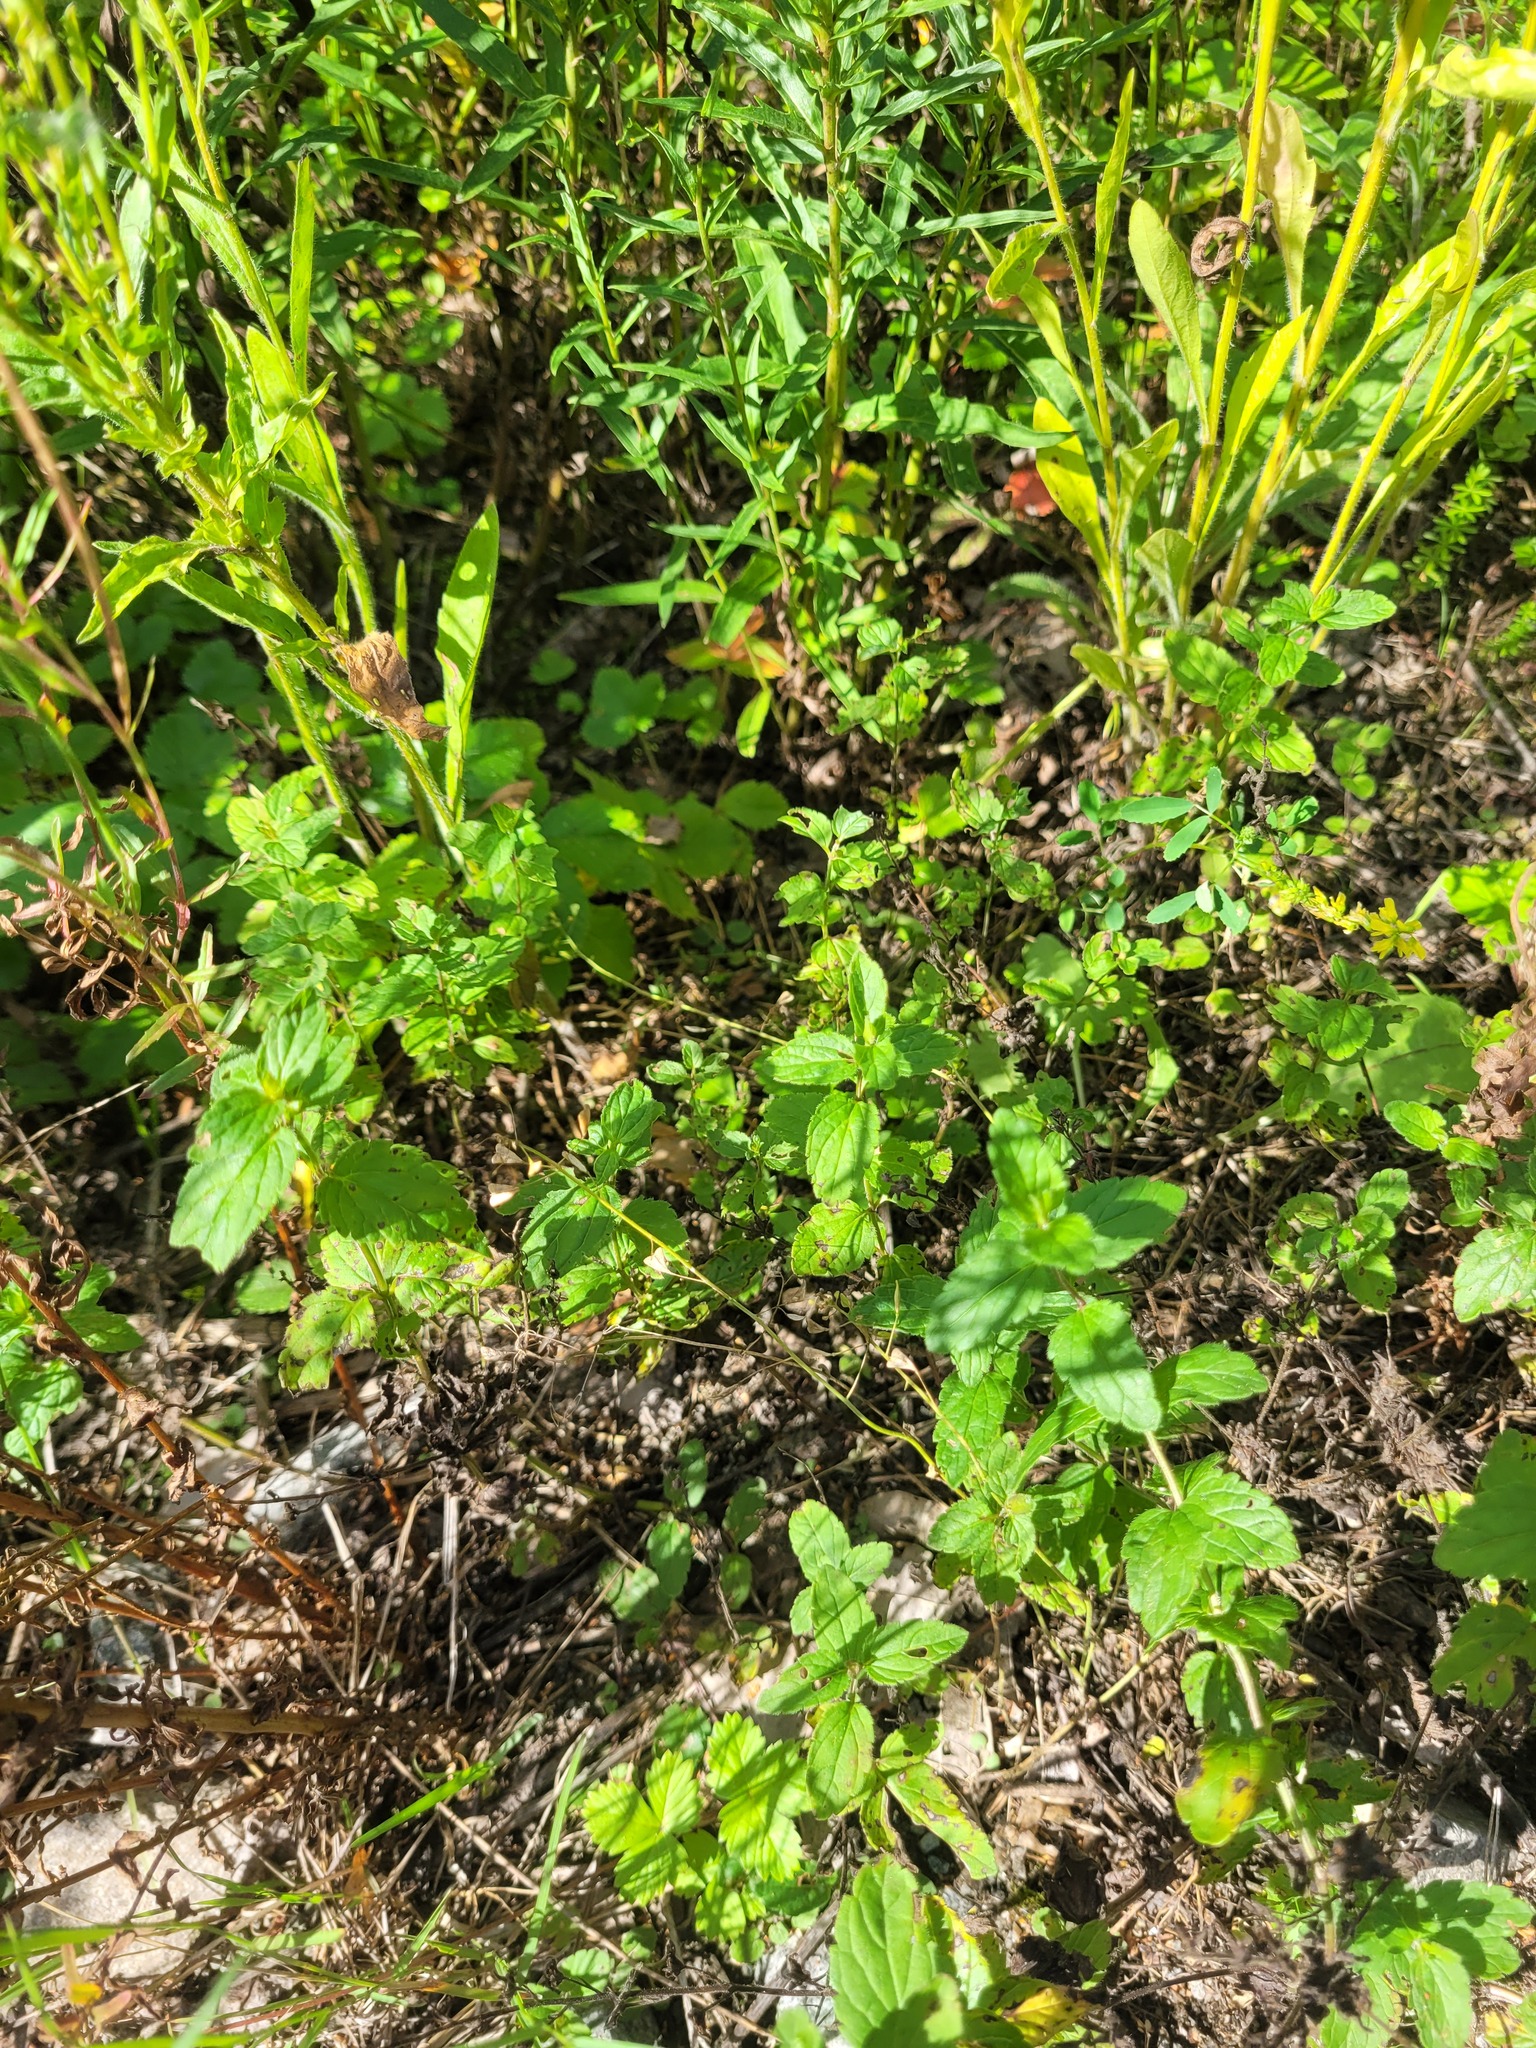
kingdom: Plantae
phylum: Tracheophyta
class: Magnoliopsida
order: Brassicales
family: Brassicaceae
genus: Capsella
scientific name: Capsella bursa-pastoris
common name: Shepherd's purse
